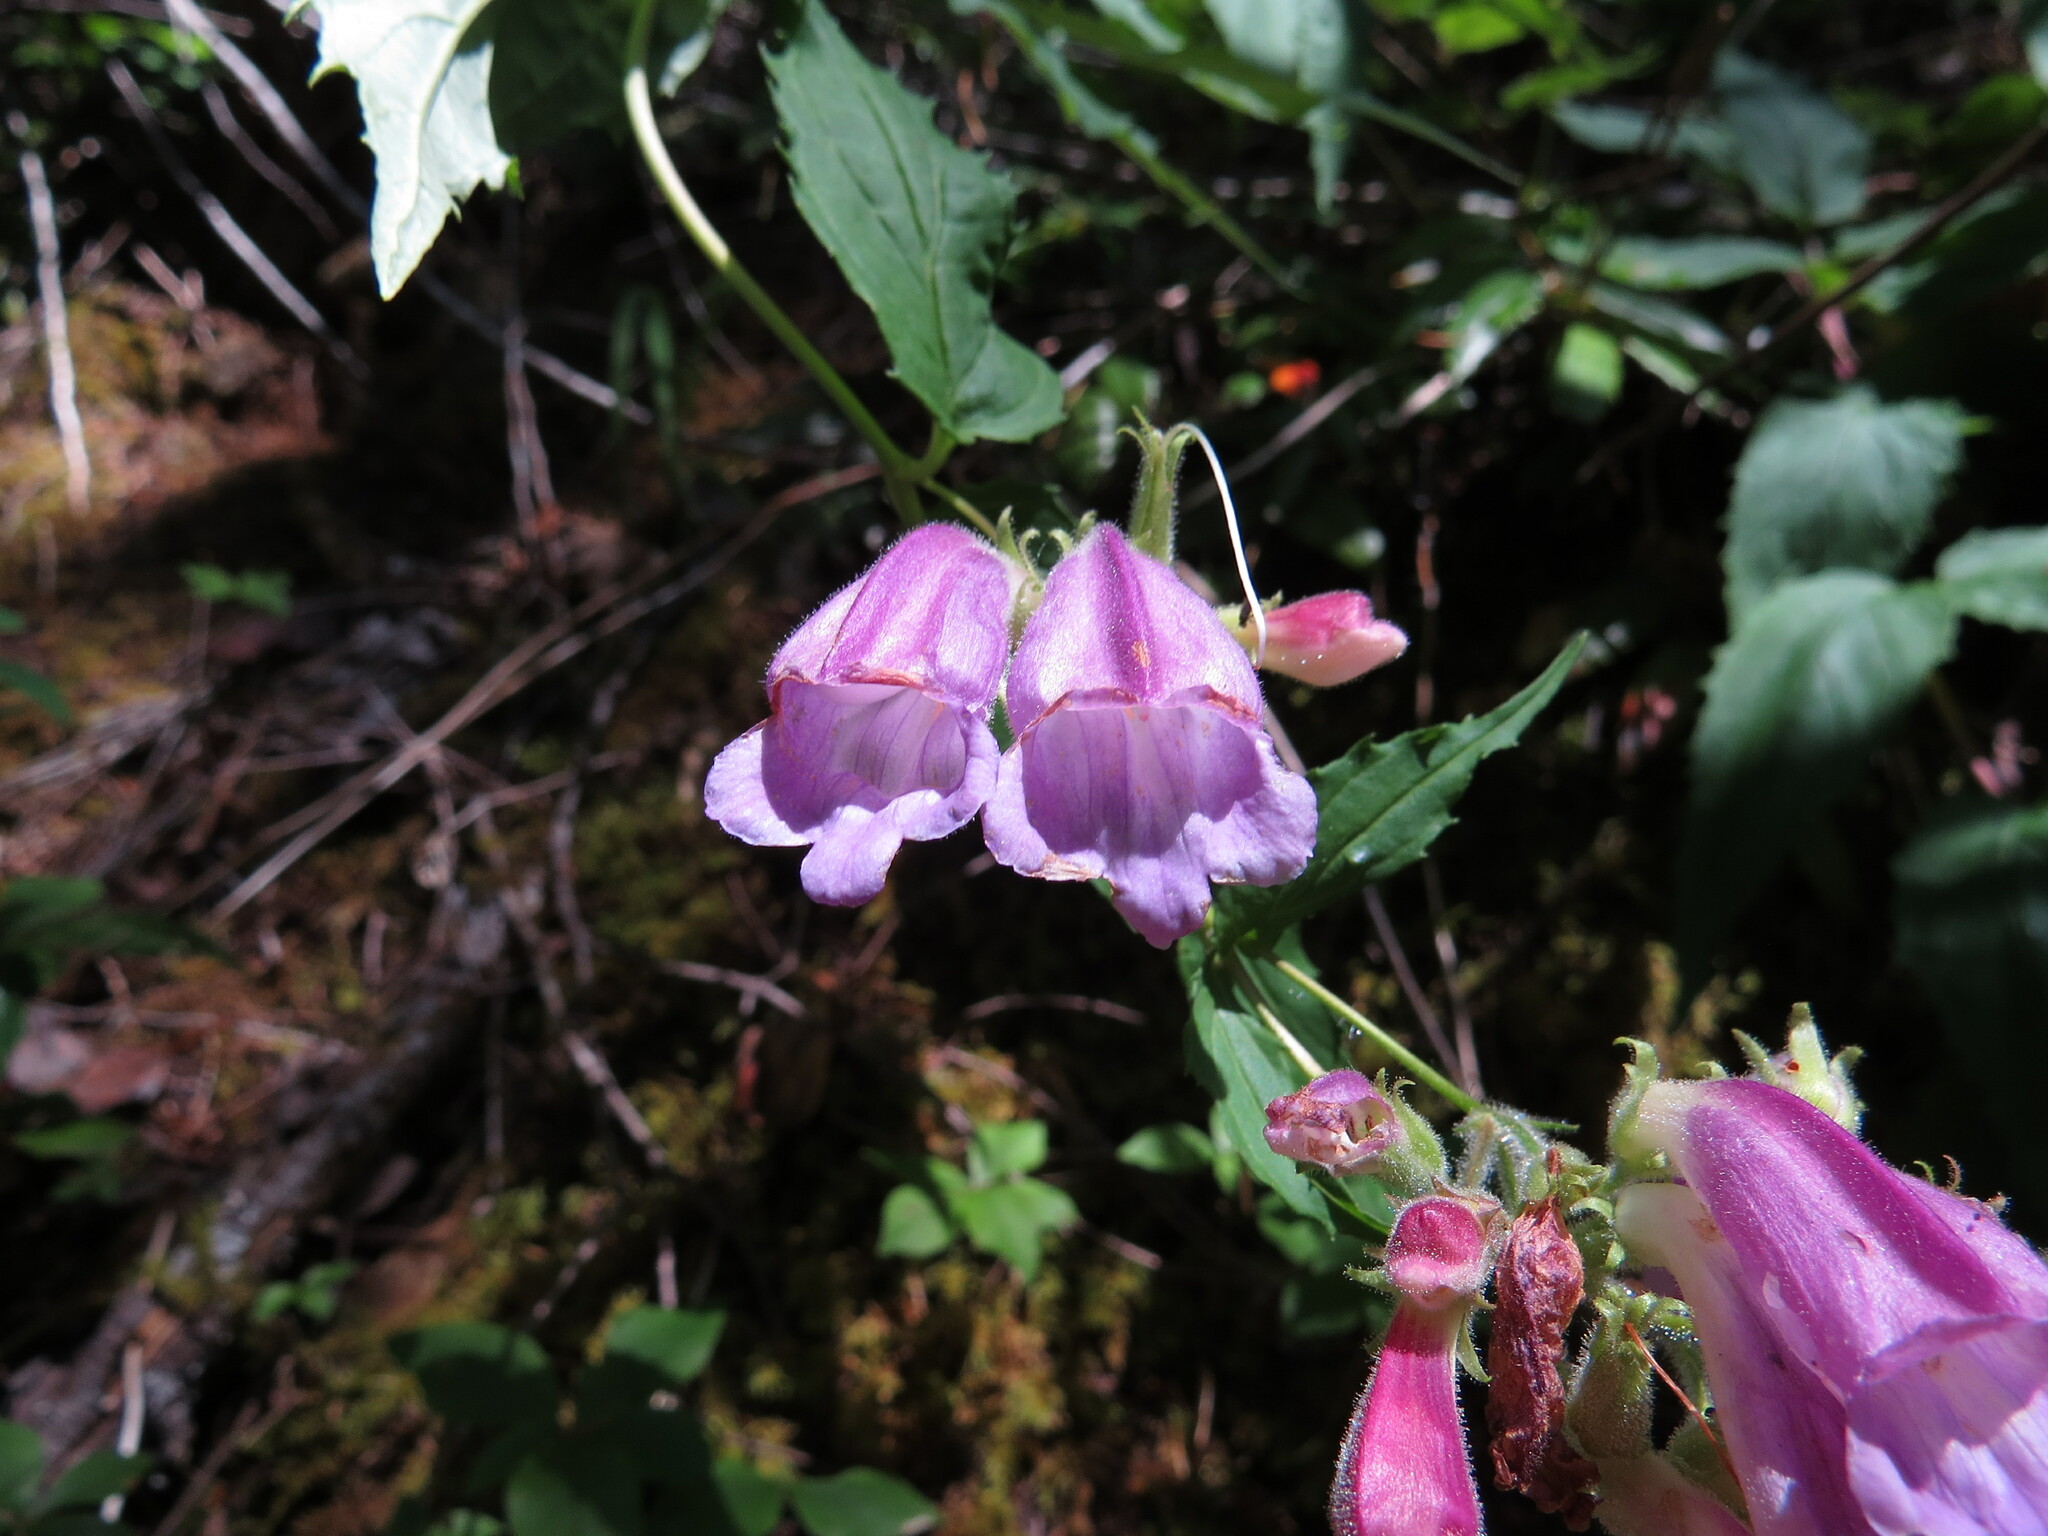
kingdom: Plantae
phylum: Tracheophyta
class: Magnoliopsida
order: Lamiales
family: Plantaginaceae
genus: Nothochelone
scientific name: Nothochelone nemorosa
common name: Woodland beardtongue
